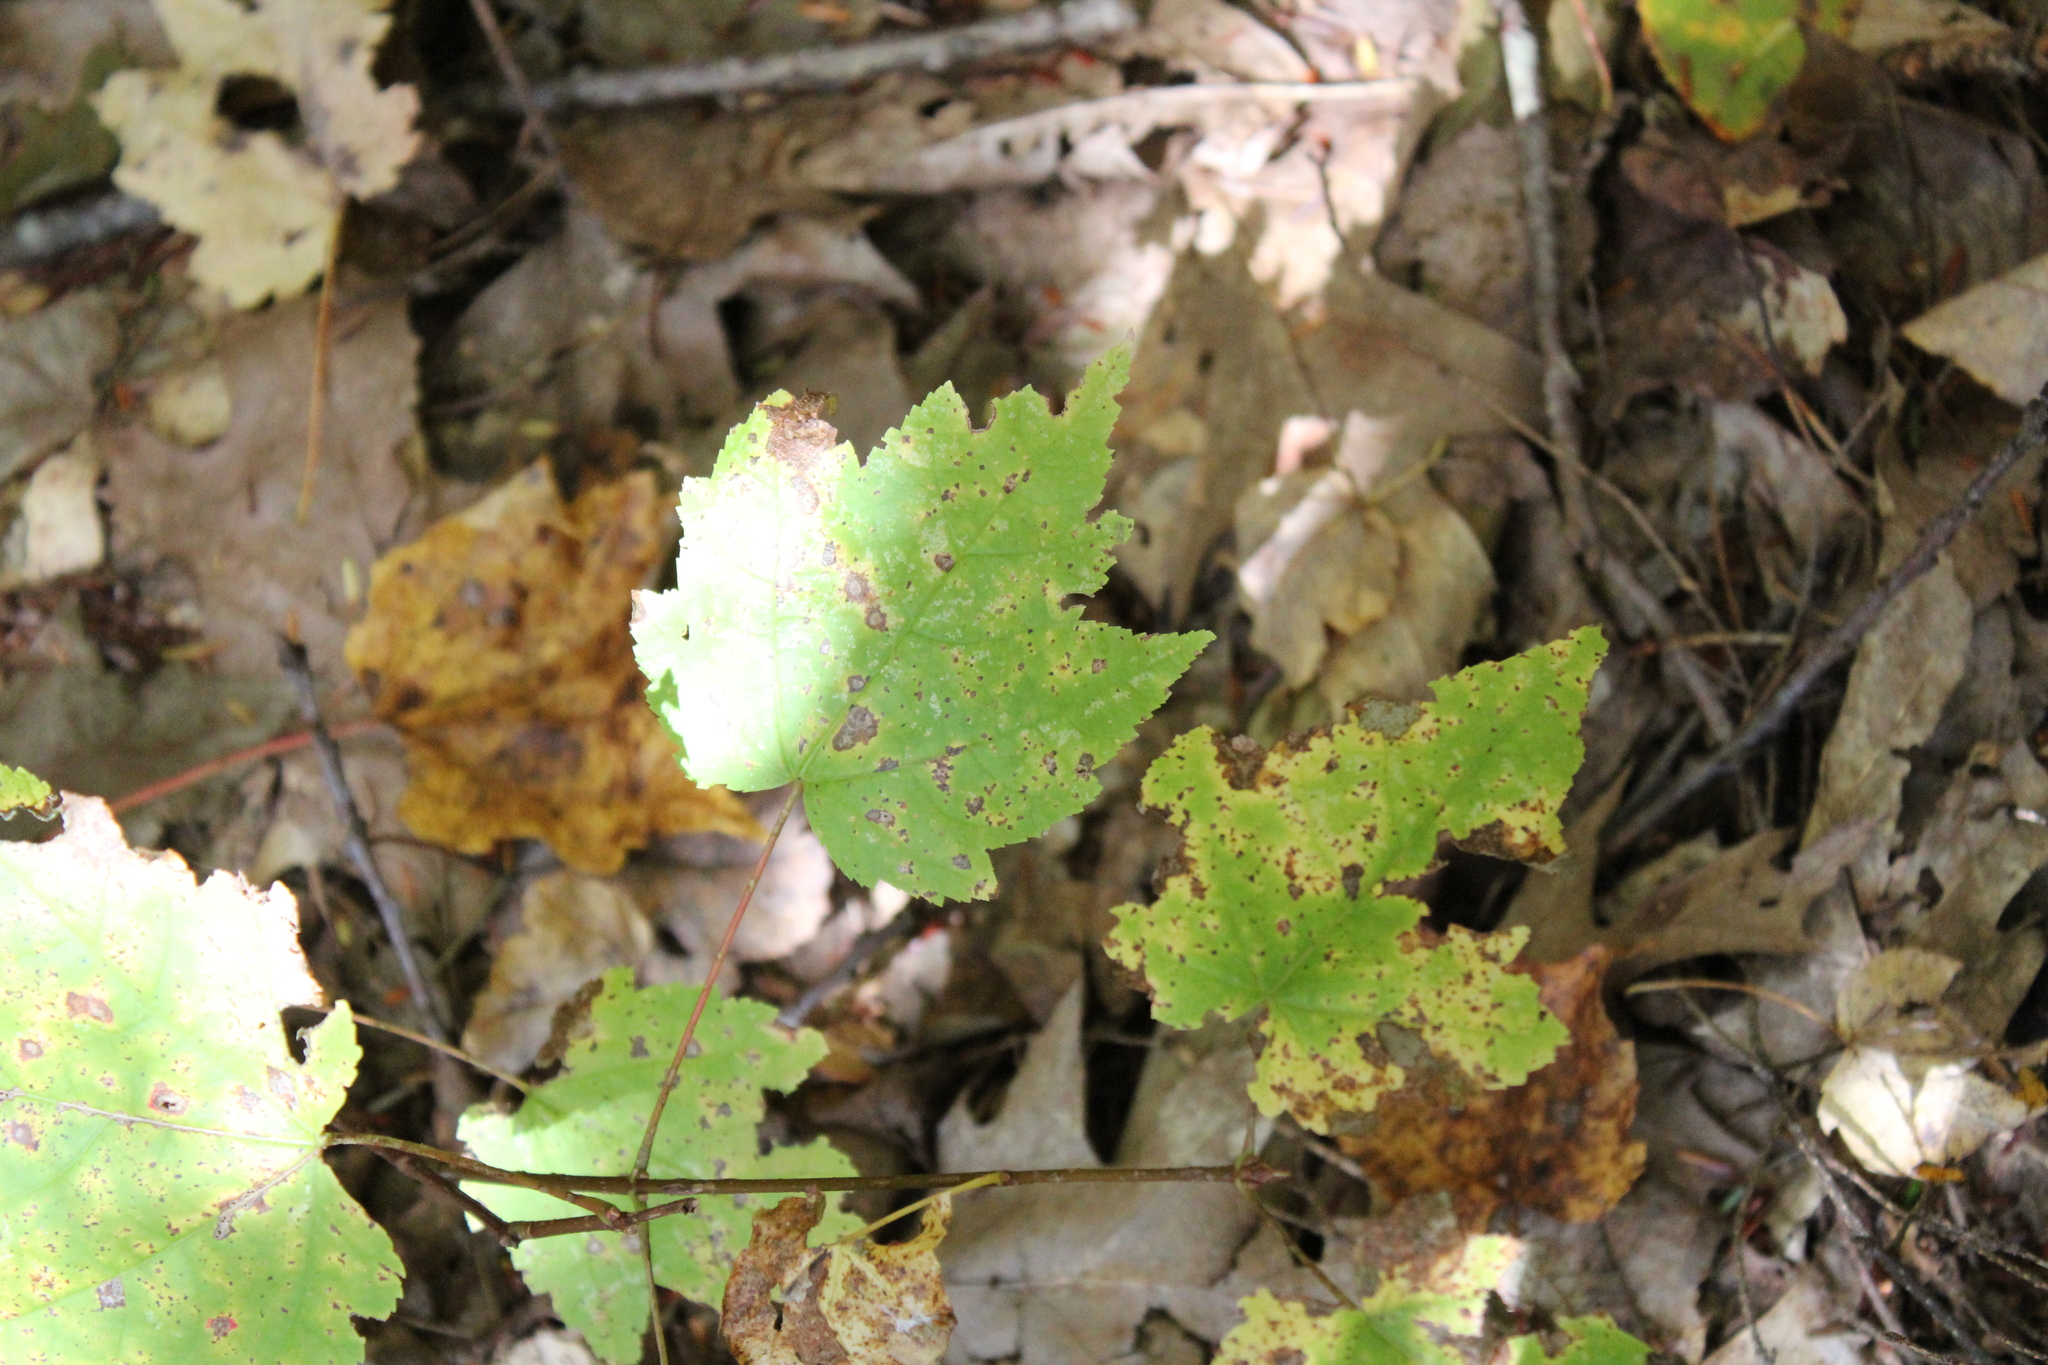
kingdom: Plantae
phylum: Tracheophyta
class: Magnoliopsida
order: Sapindales
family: Sapindaceae
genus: Acer
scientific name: Acer rubrum
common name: Red maple
